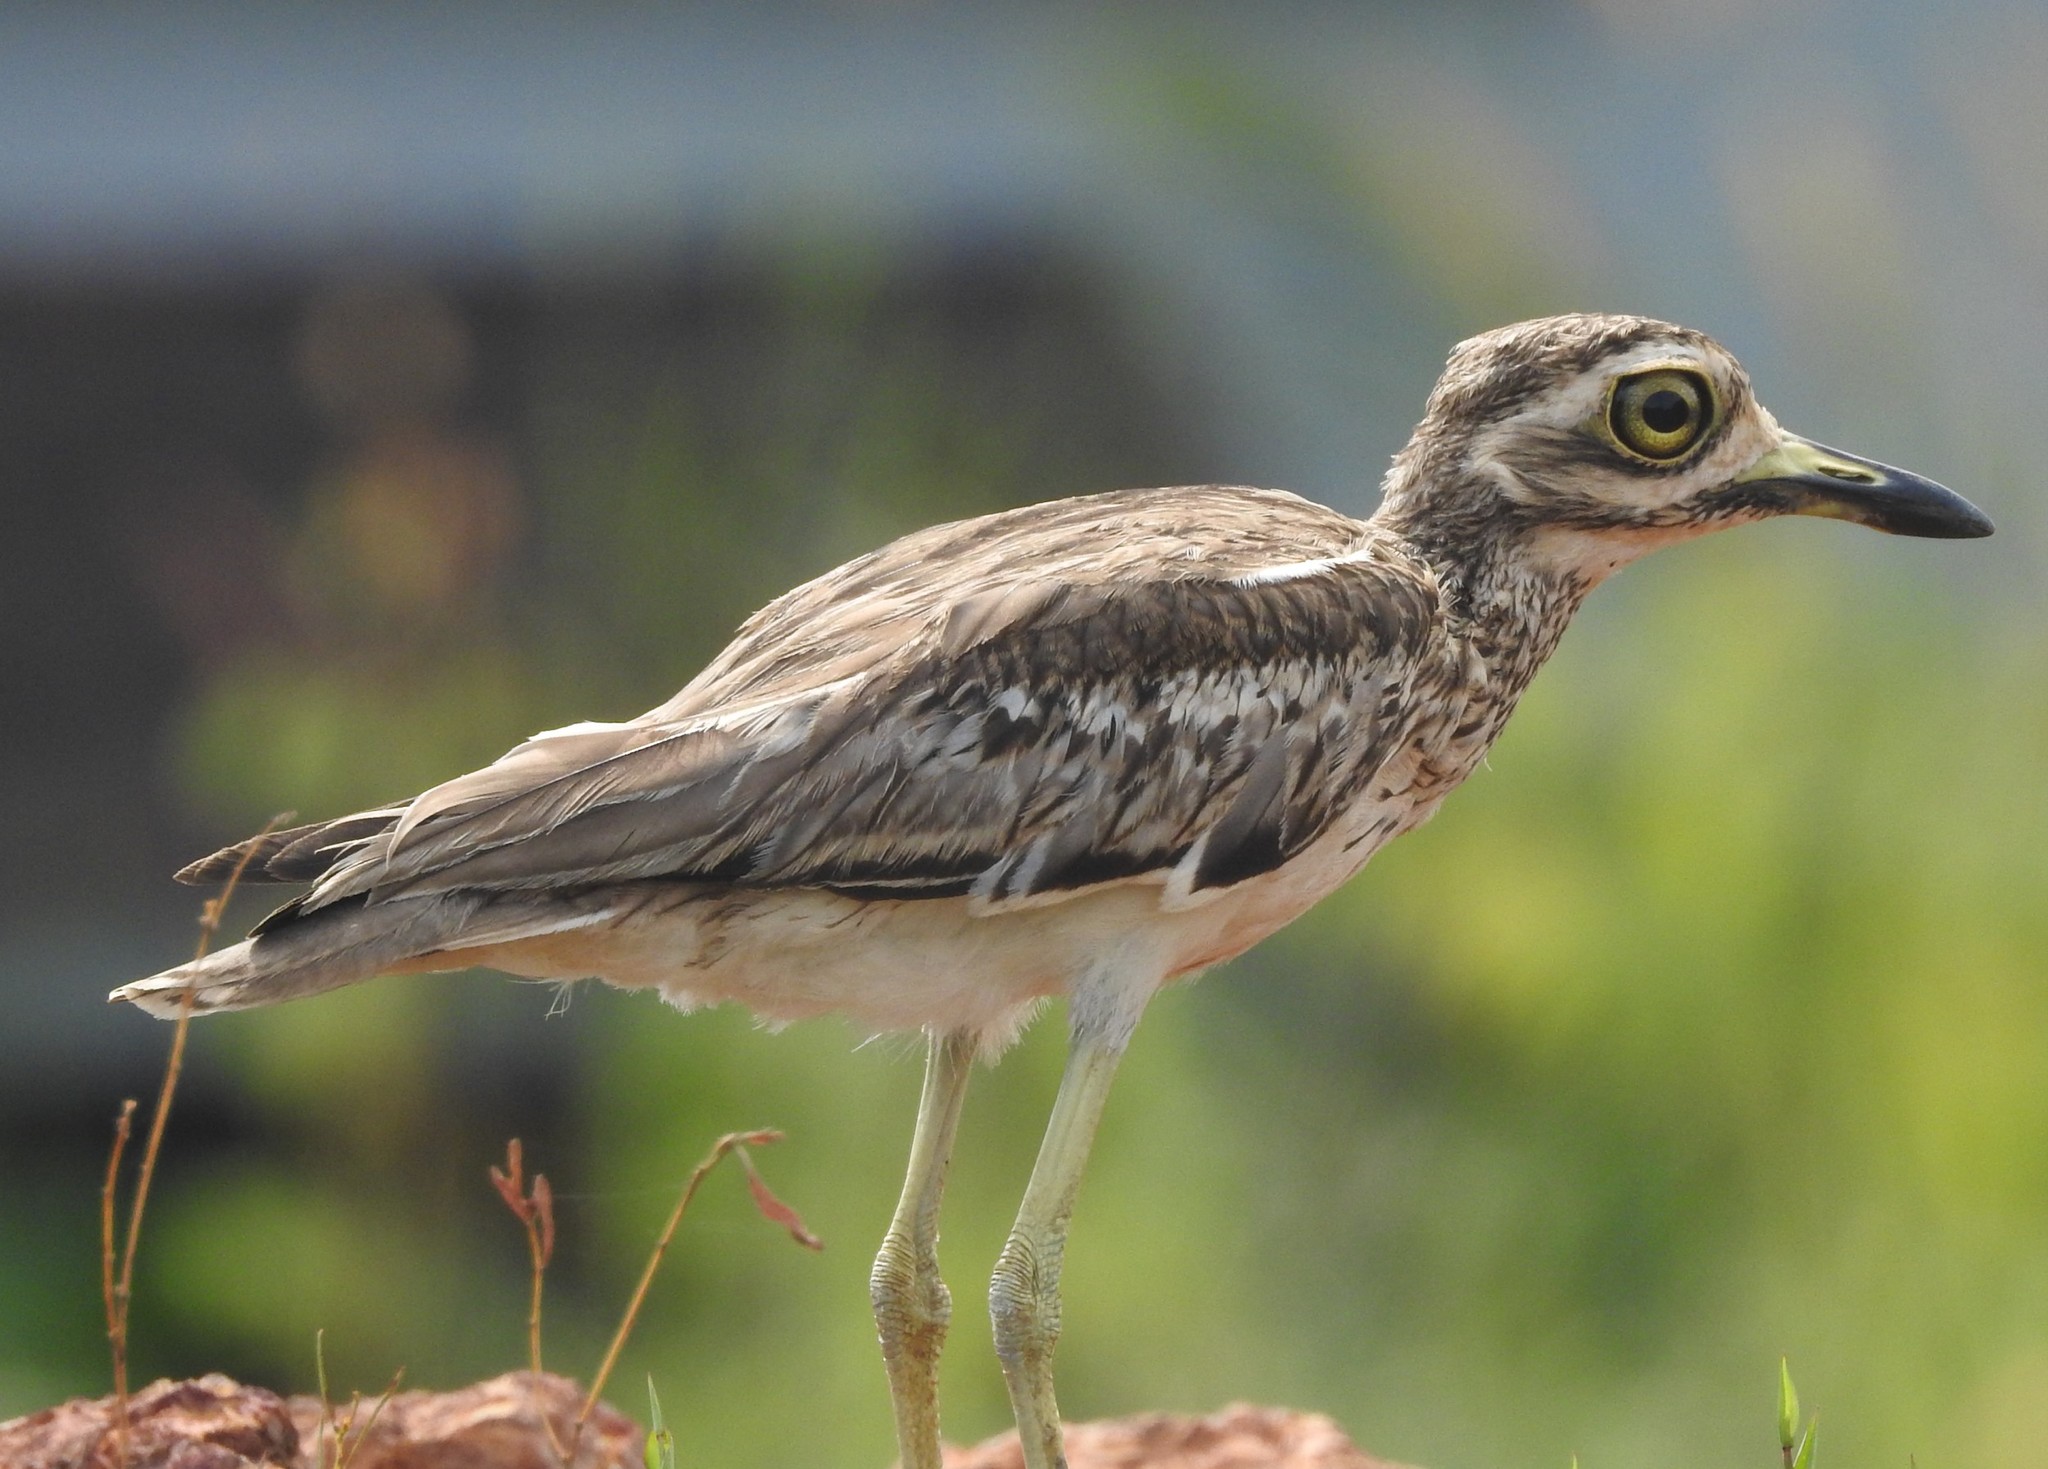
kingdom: Animalia
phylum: Chordata
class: Aves
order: Charadriiformes
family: Burhinidae
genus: Burhinus
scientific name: Burhinus indicus
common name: Indian thick-knee
